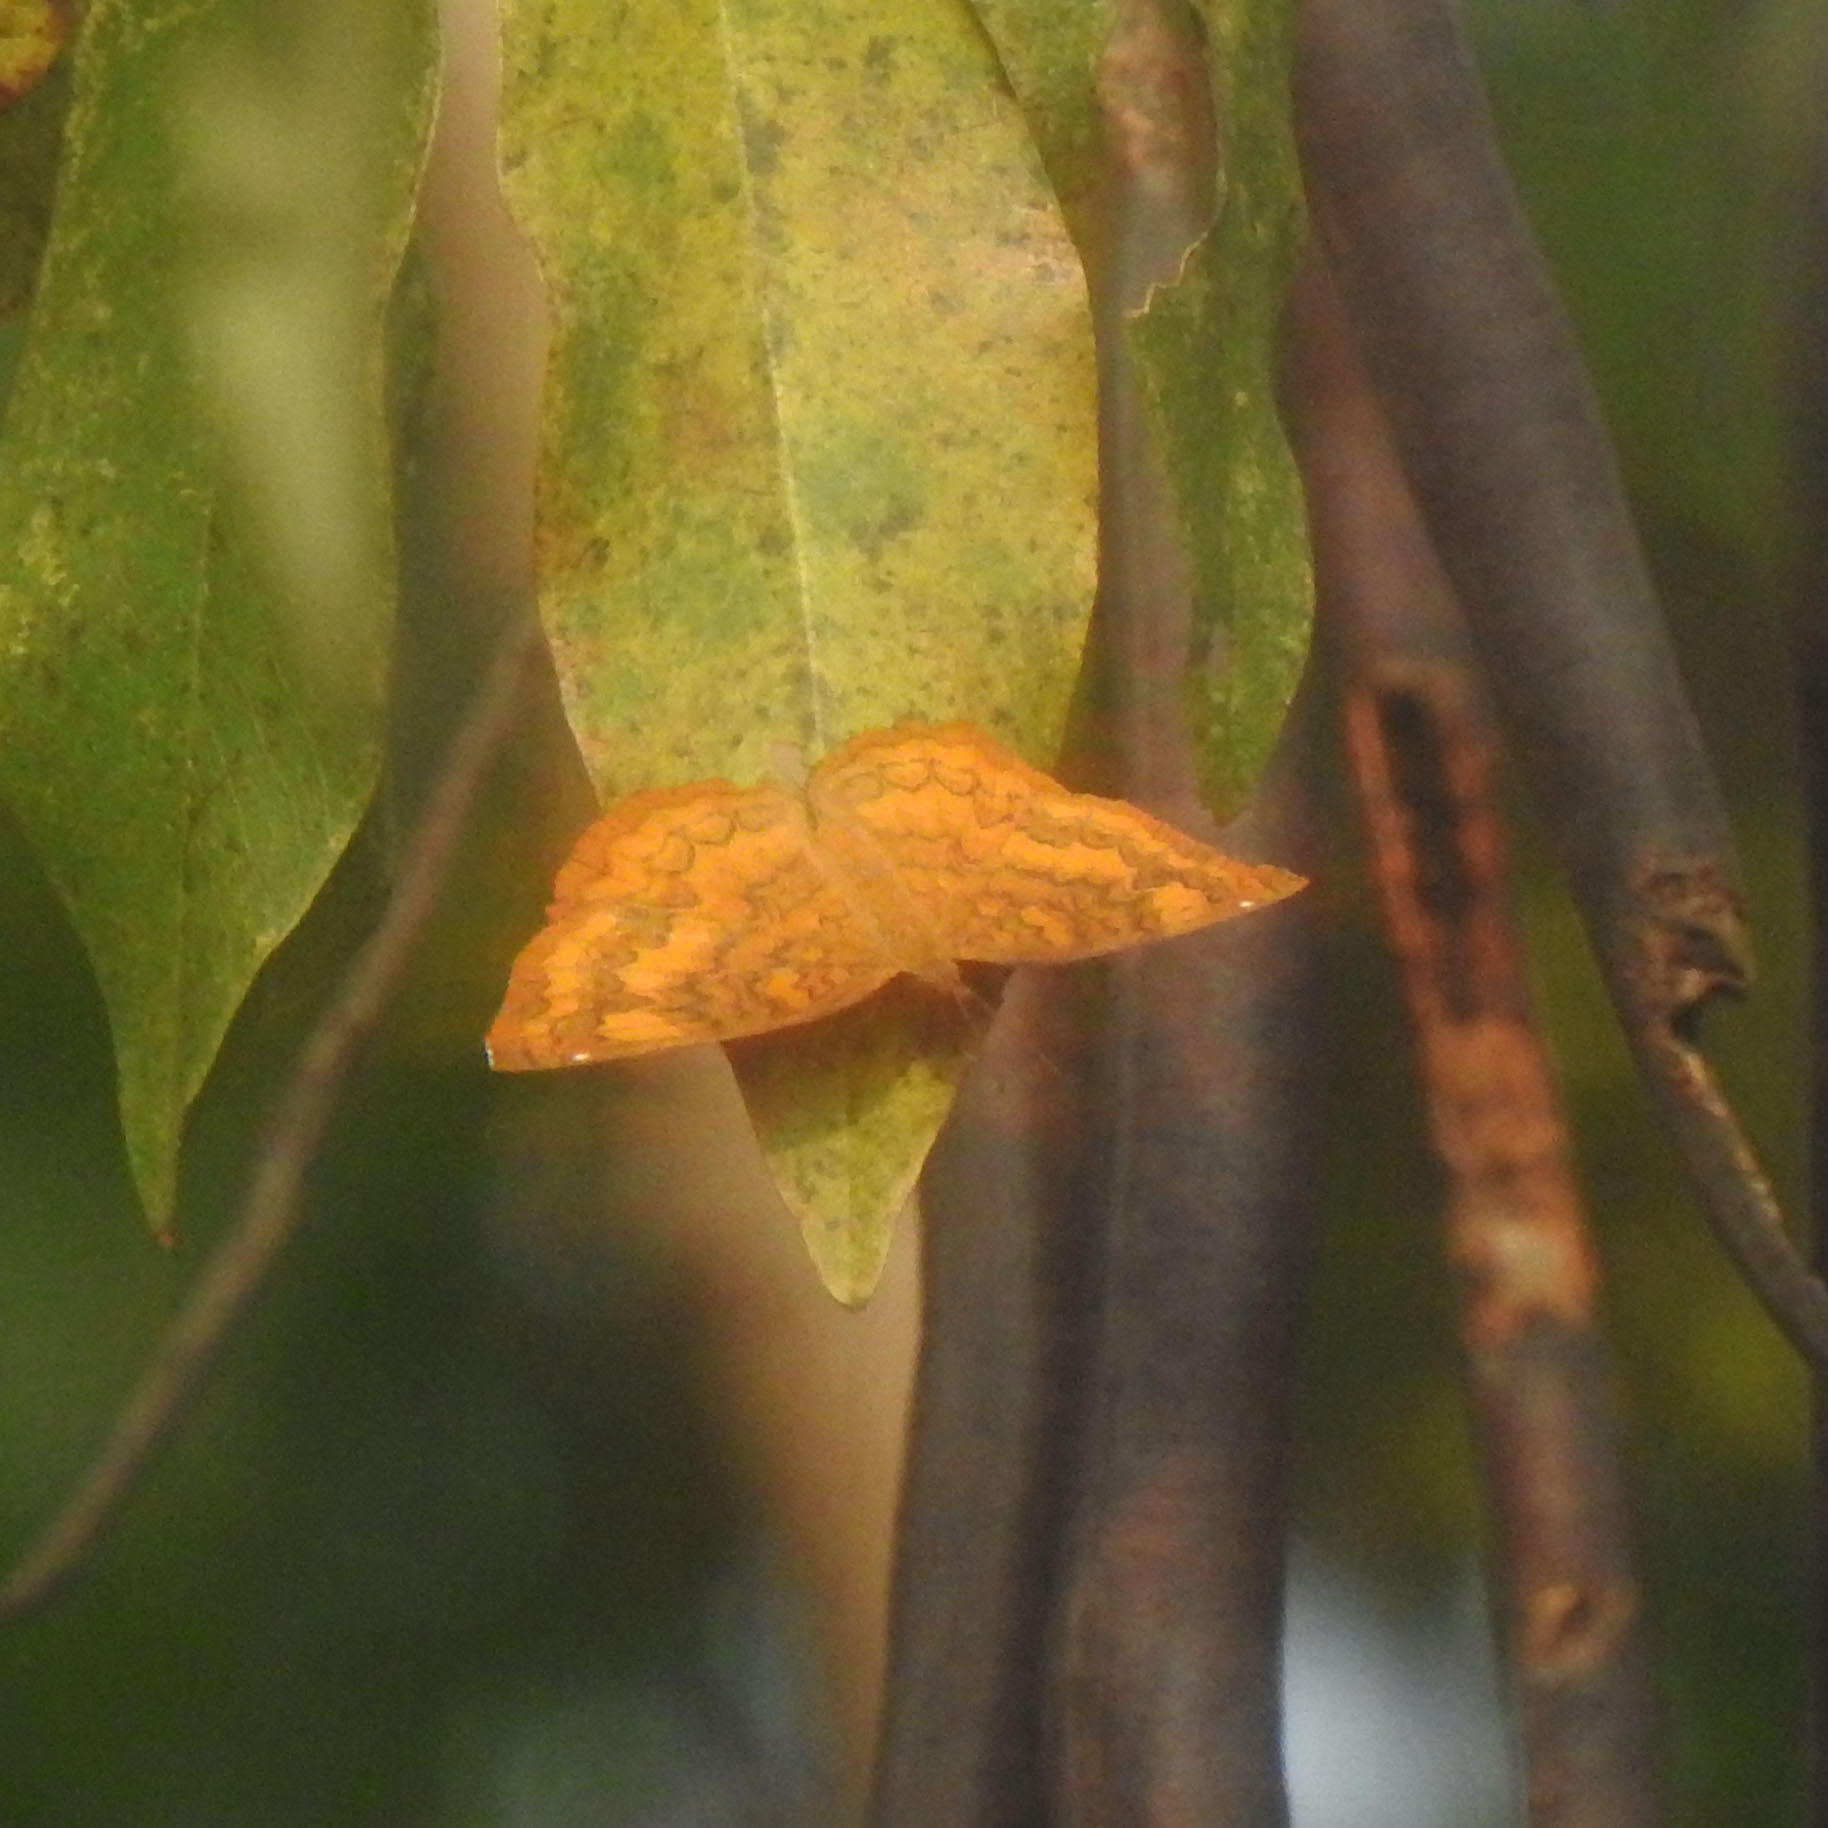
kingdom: Animalia
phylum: Arthropoda
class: Insecta
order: Lepidoptera
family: Nymphalidae
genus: Ariadne
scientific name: Ariadne merione
